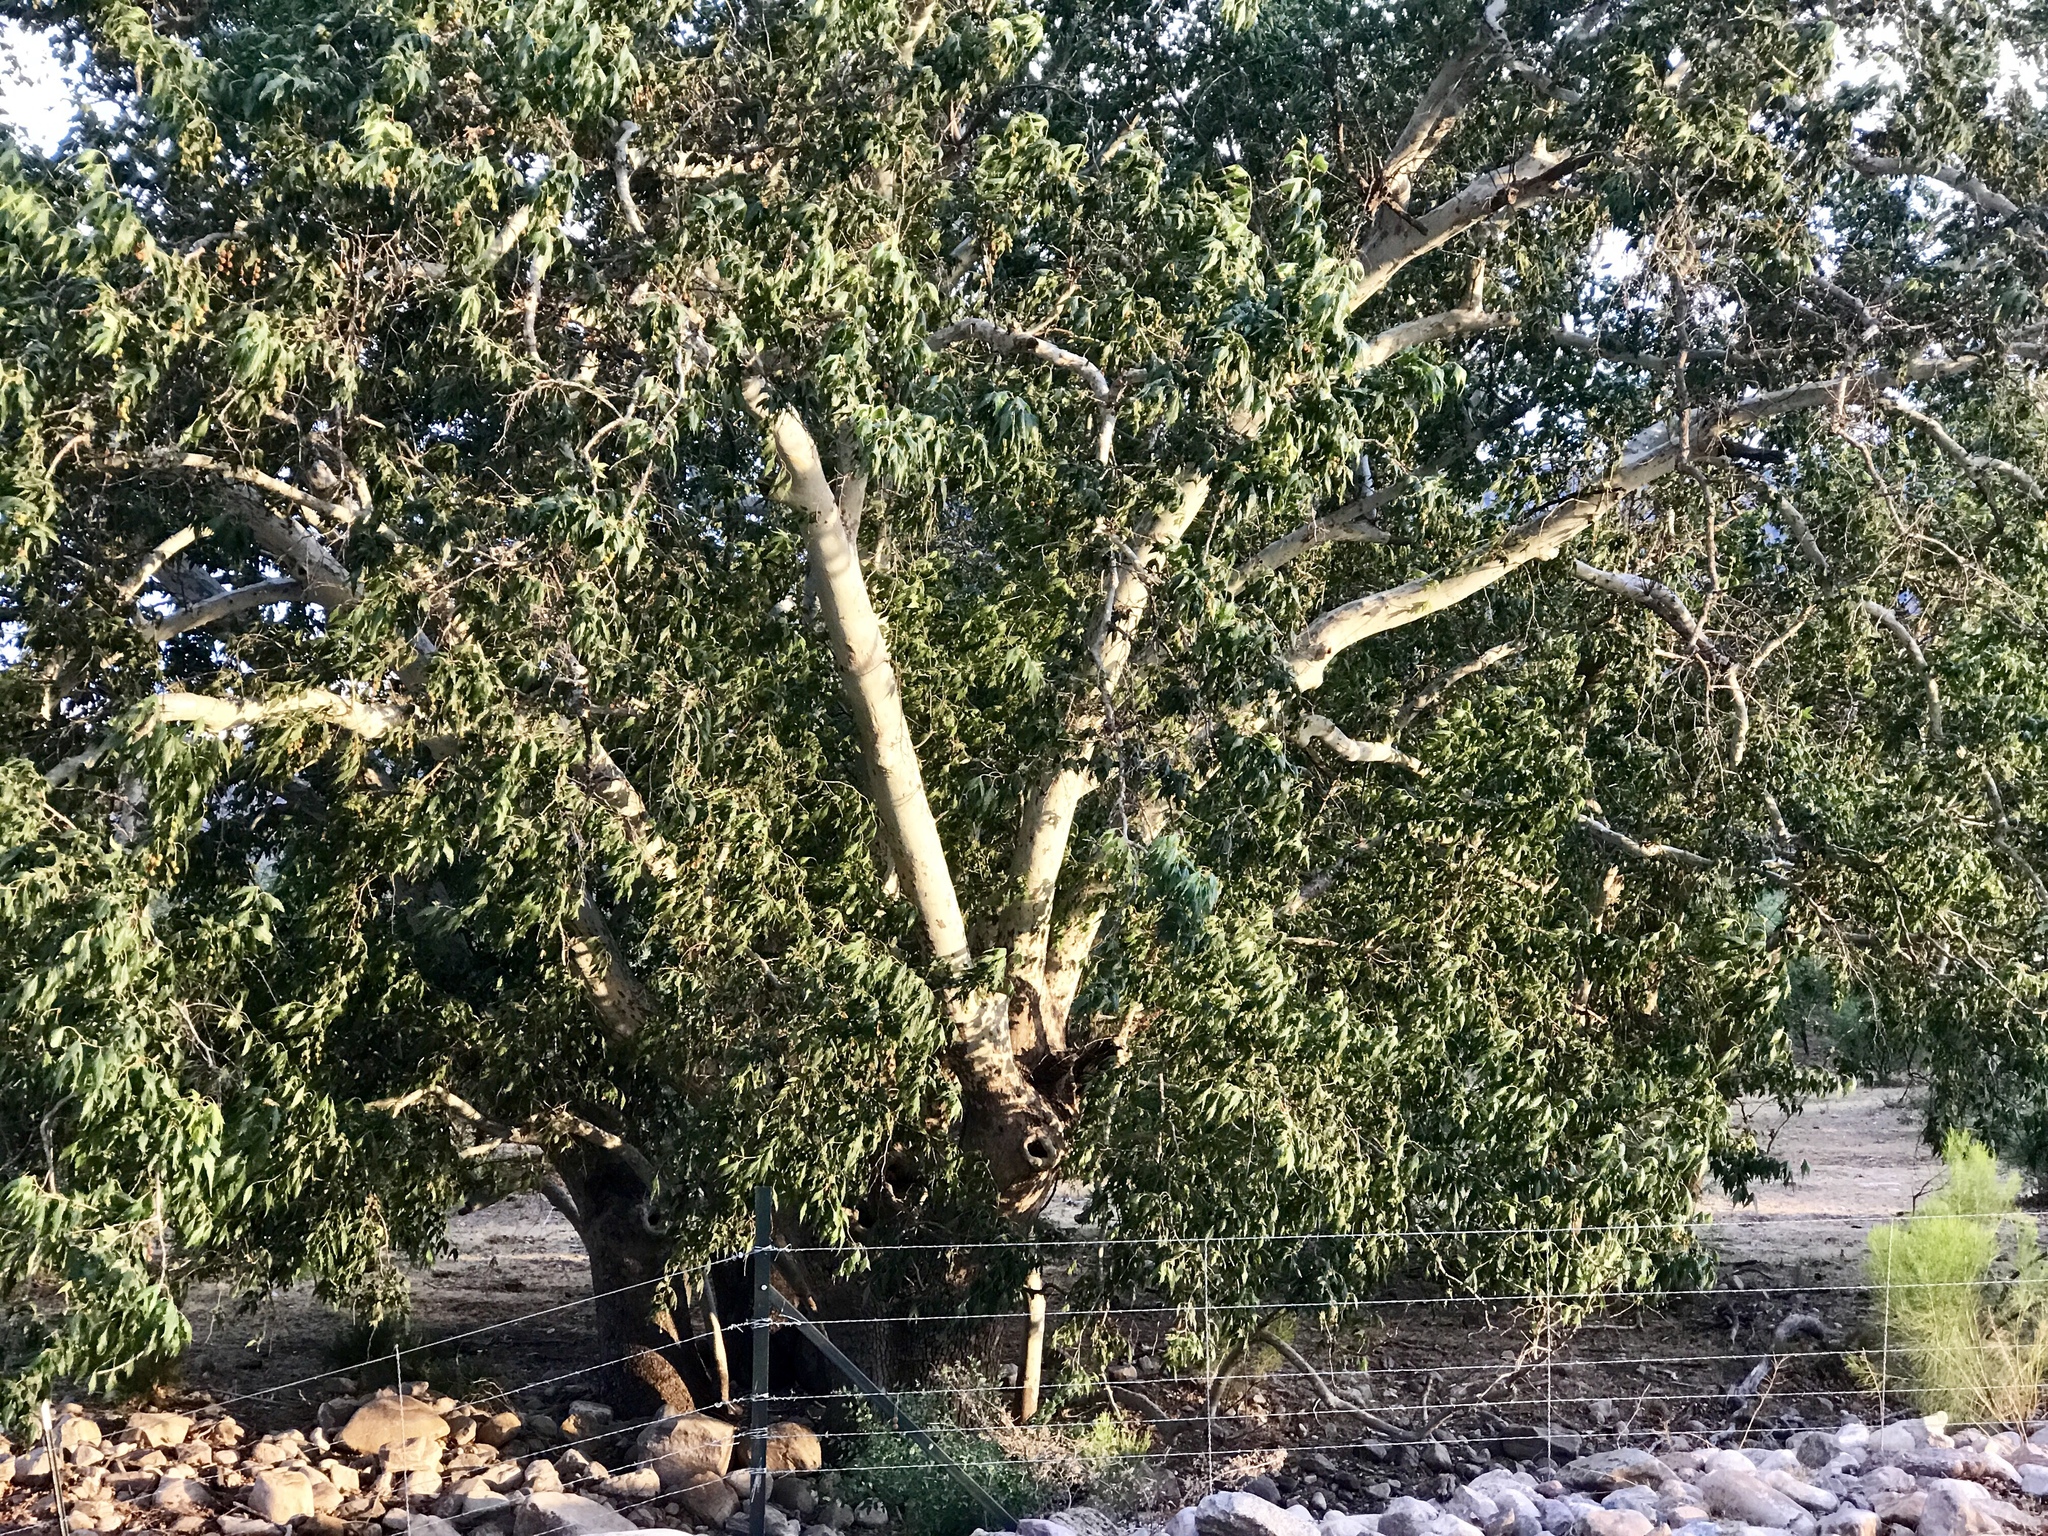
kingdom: Plantae
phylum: Tracheophyta
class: Magnoliopsida
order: Proteales
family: Platanaceae
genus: Platanus
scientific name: Platanus wrightii
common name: Arizona sycamore
